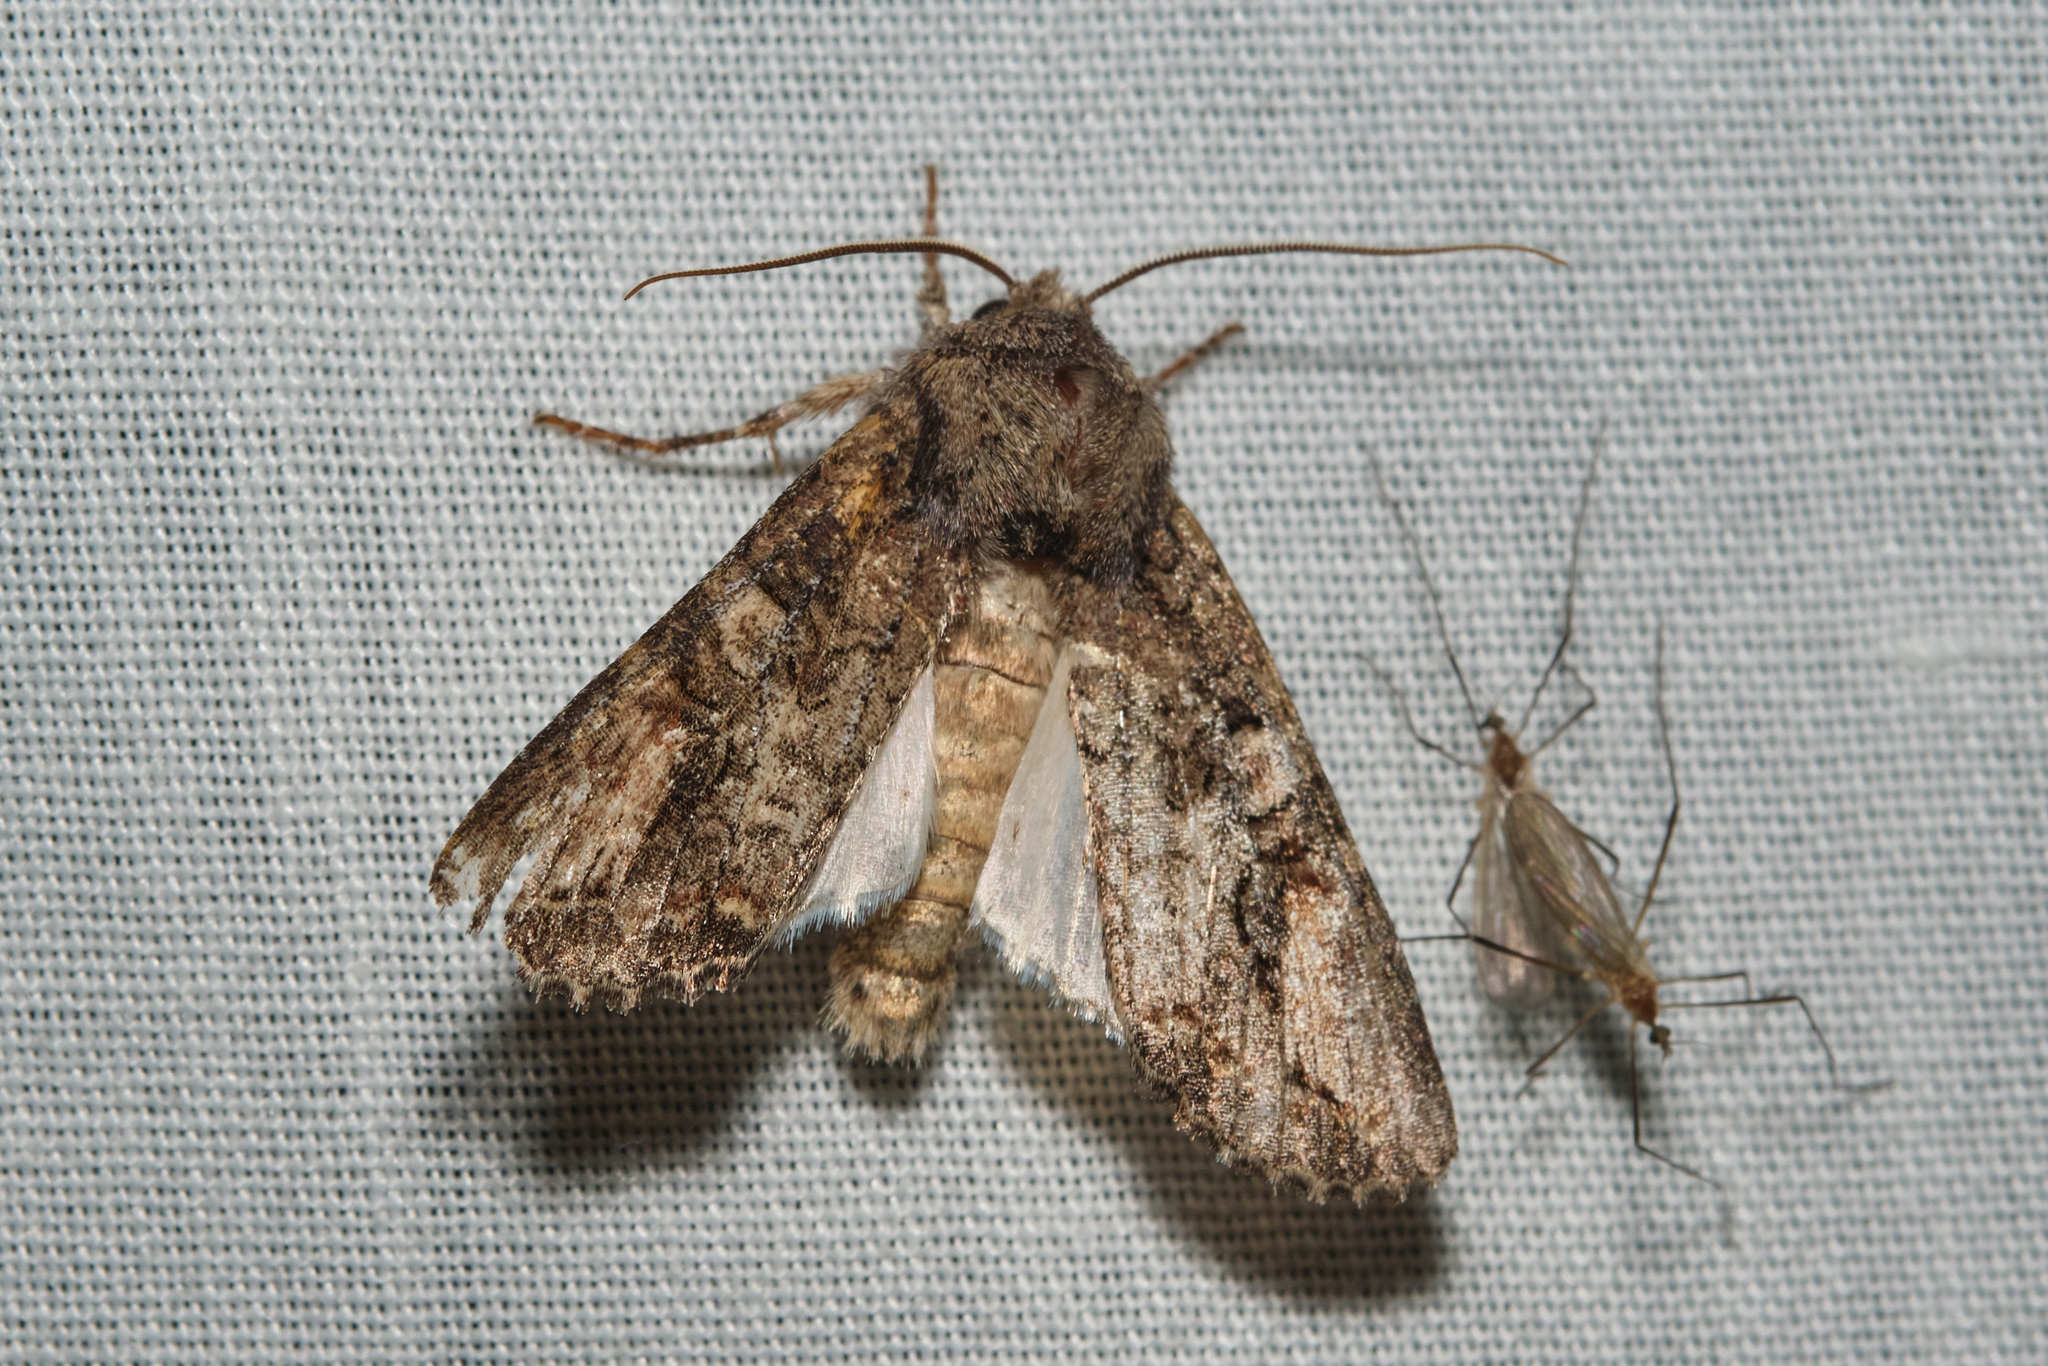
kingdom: Animalia
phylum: Arthropoda
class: Insecta
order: Lepidoptera
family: Noctuidae
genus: Egira
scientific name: Egira perlubens
